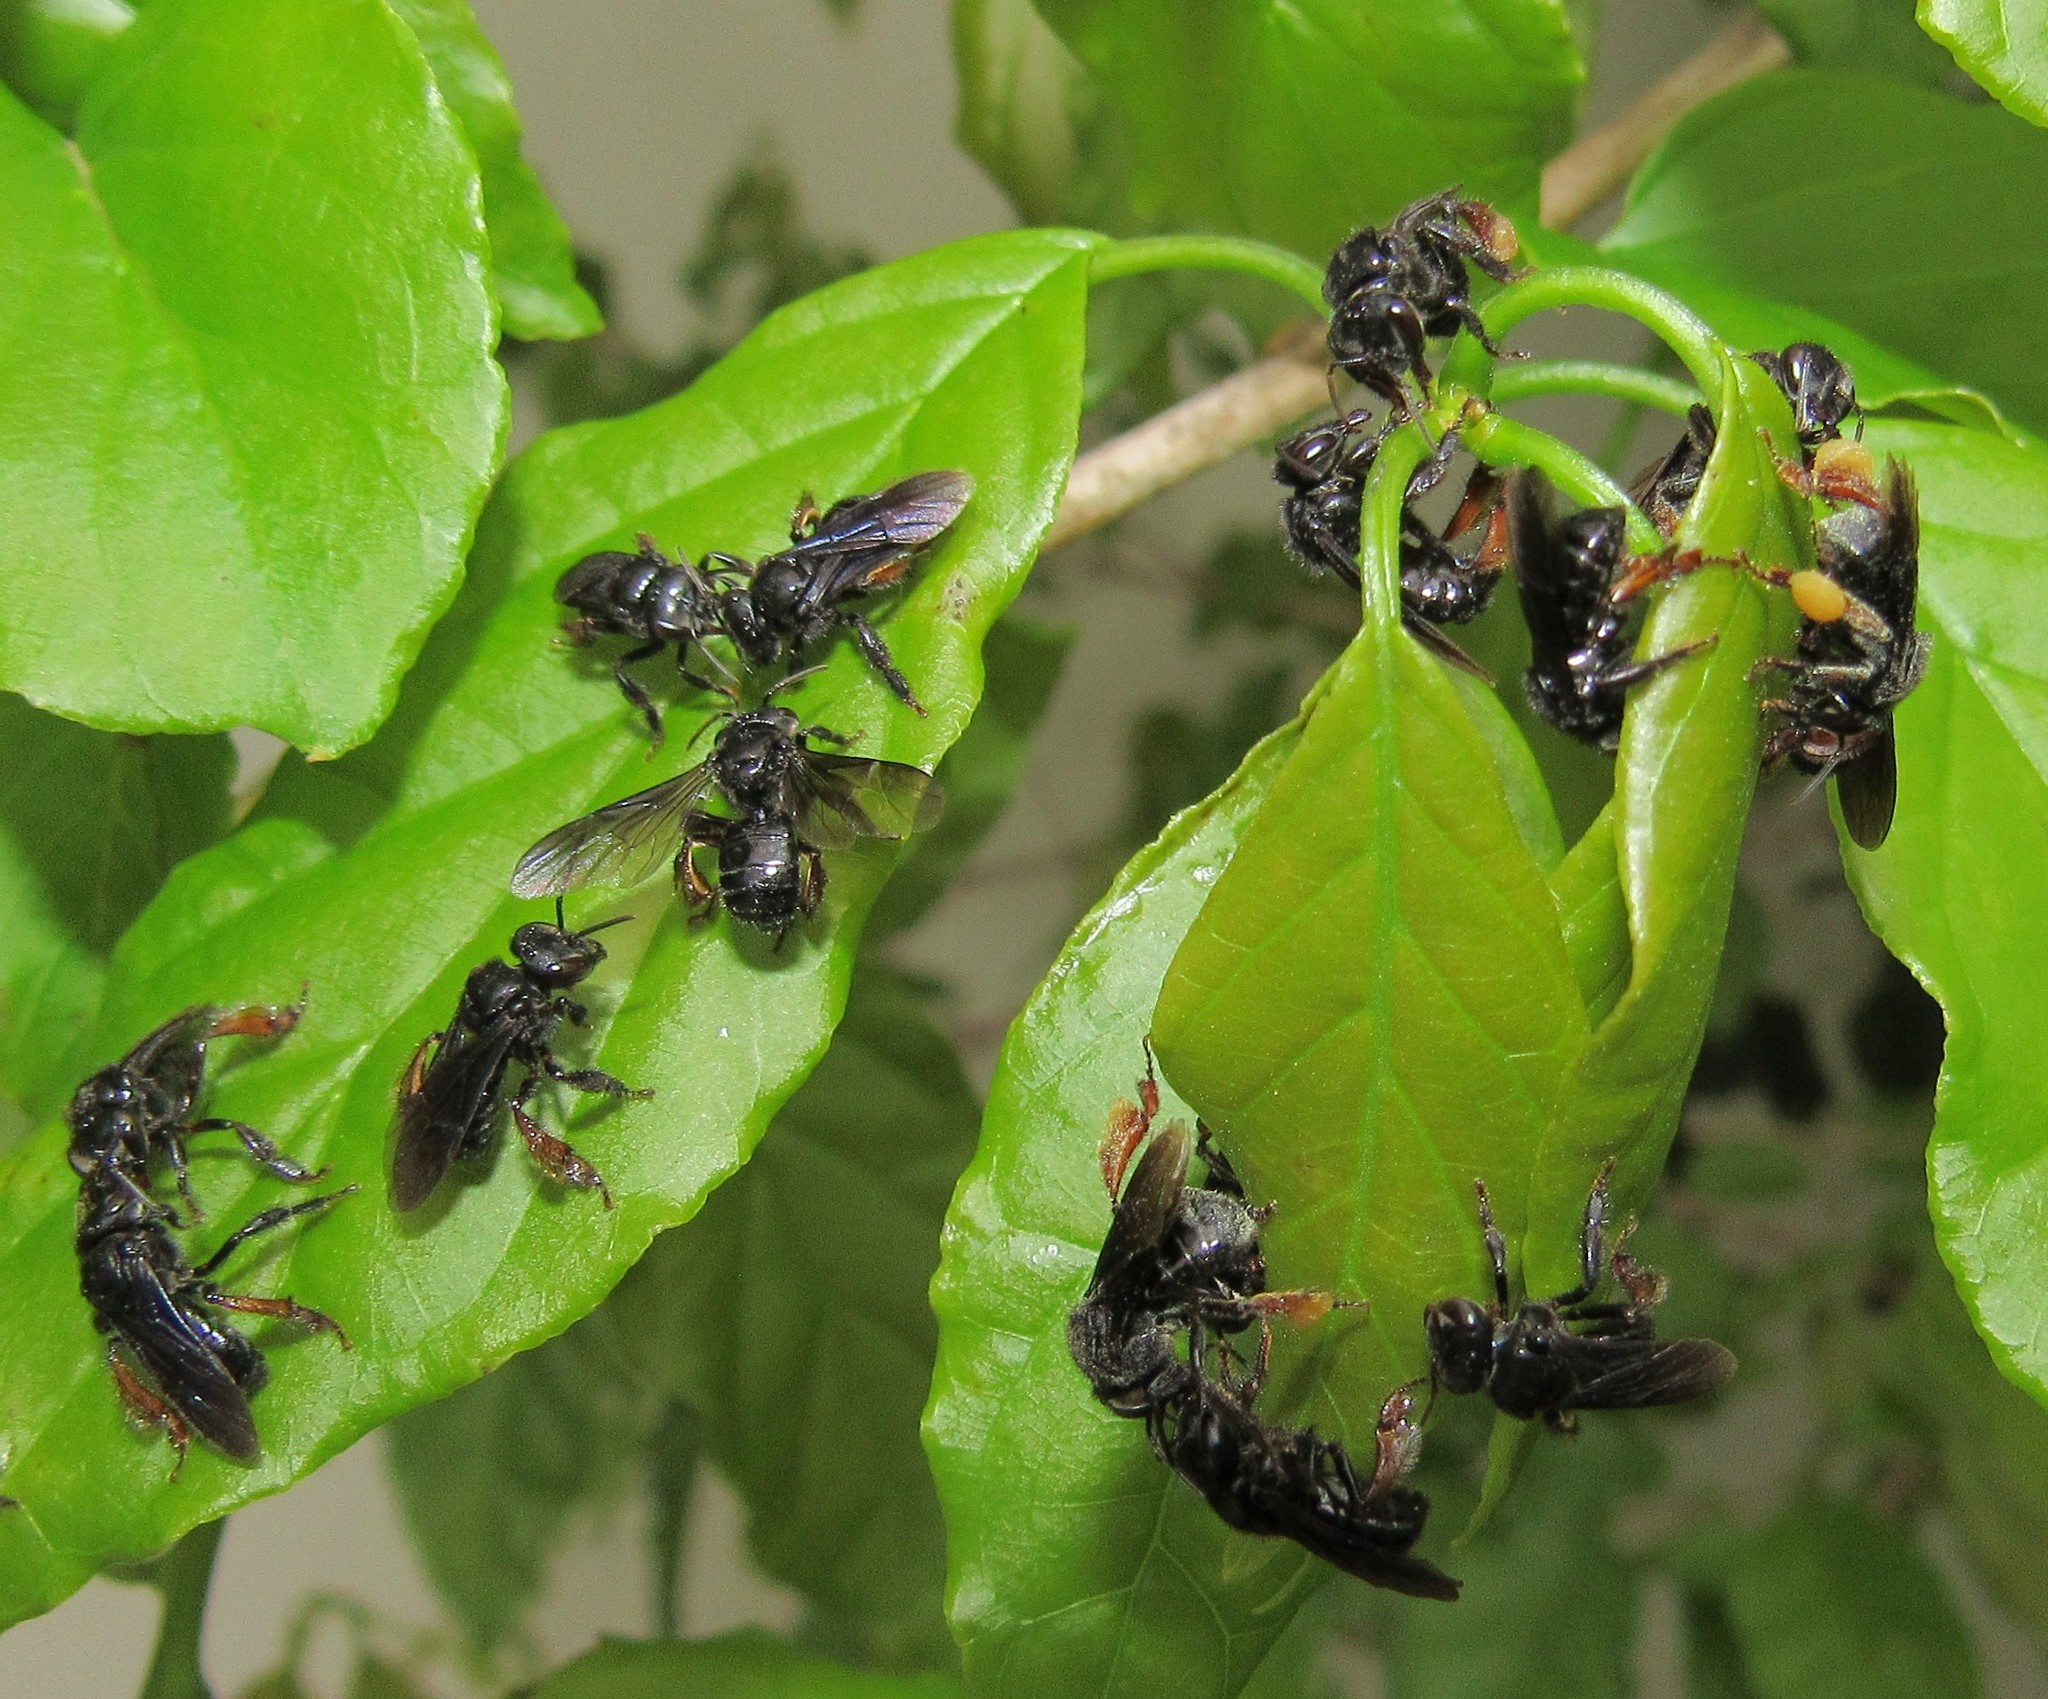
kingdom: Animalia
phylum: Arthropoda
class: Insecta
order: Hymenoptera
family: Apidae
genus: Trigona
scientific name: Trigona spinipes
